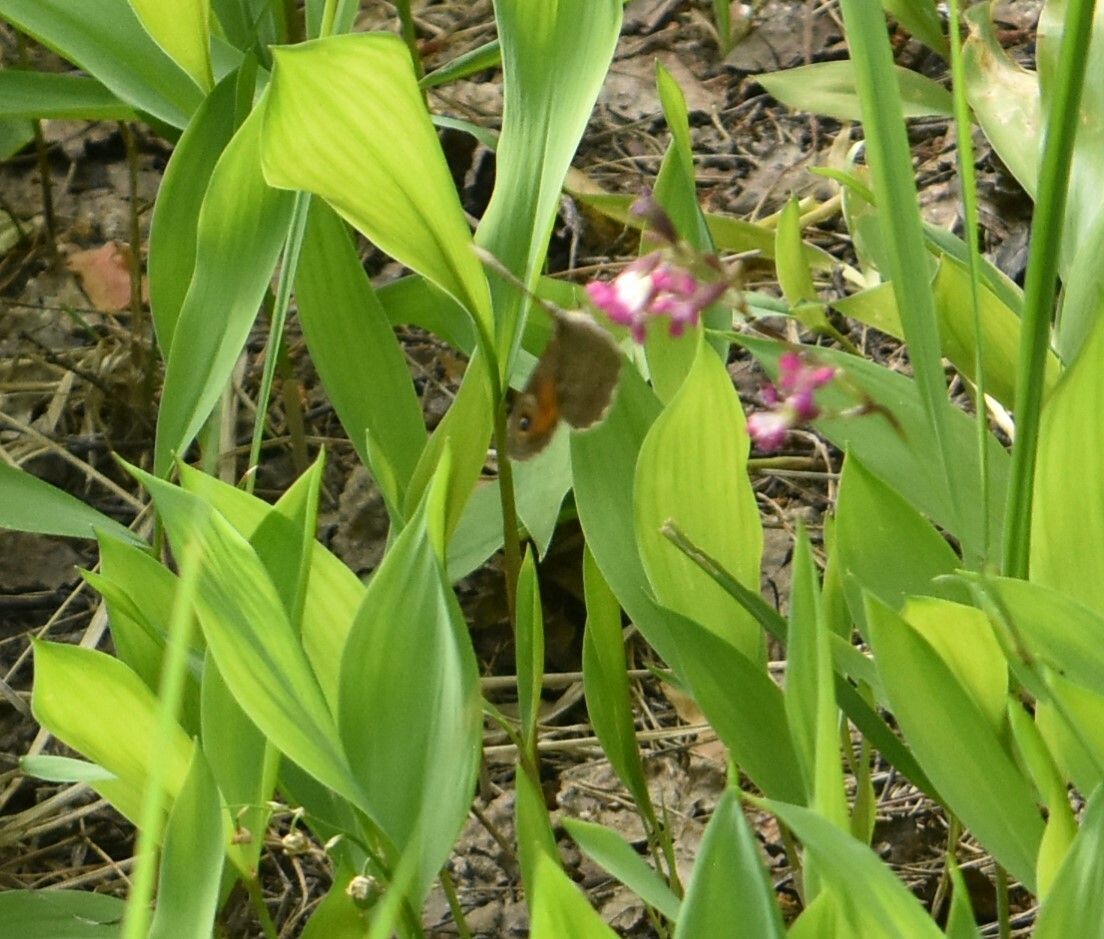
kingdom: Animalia
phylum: Arthropoda
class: Insecta
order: Lepidoptera
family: Nymphalidae
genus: Pararge
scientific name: Pararge Lasiommata maera
